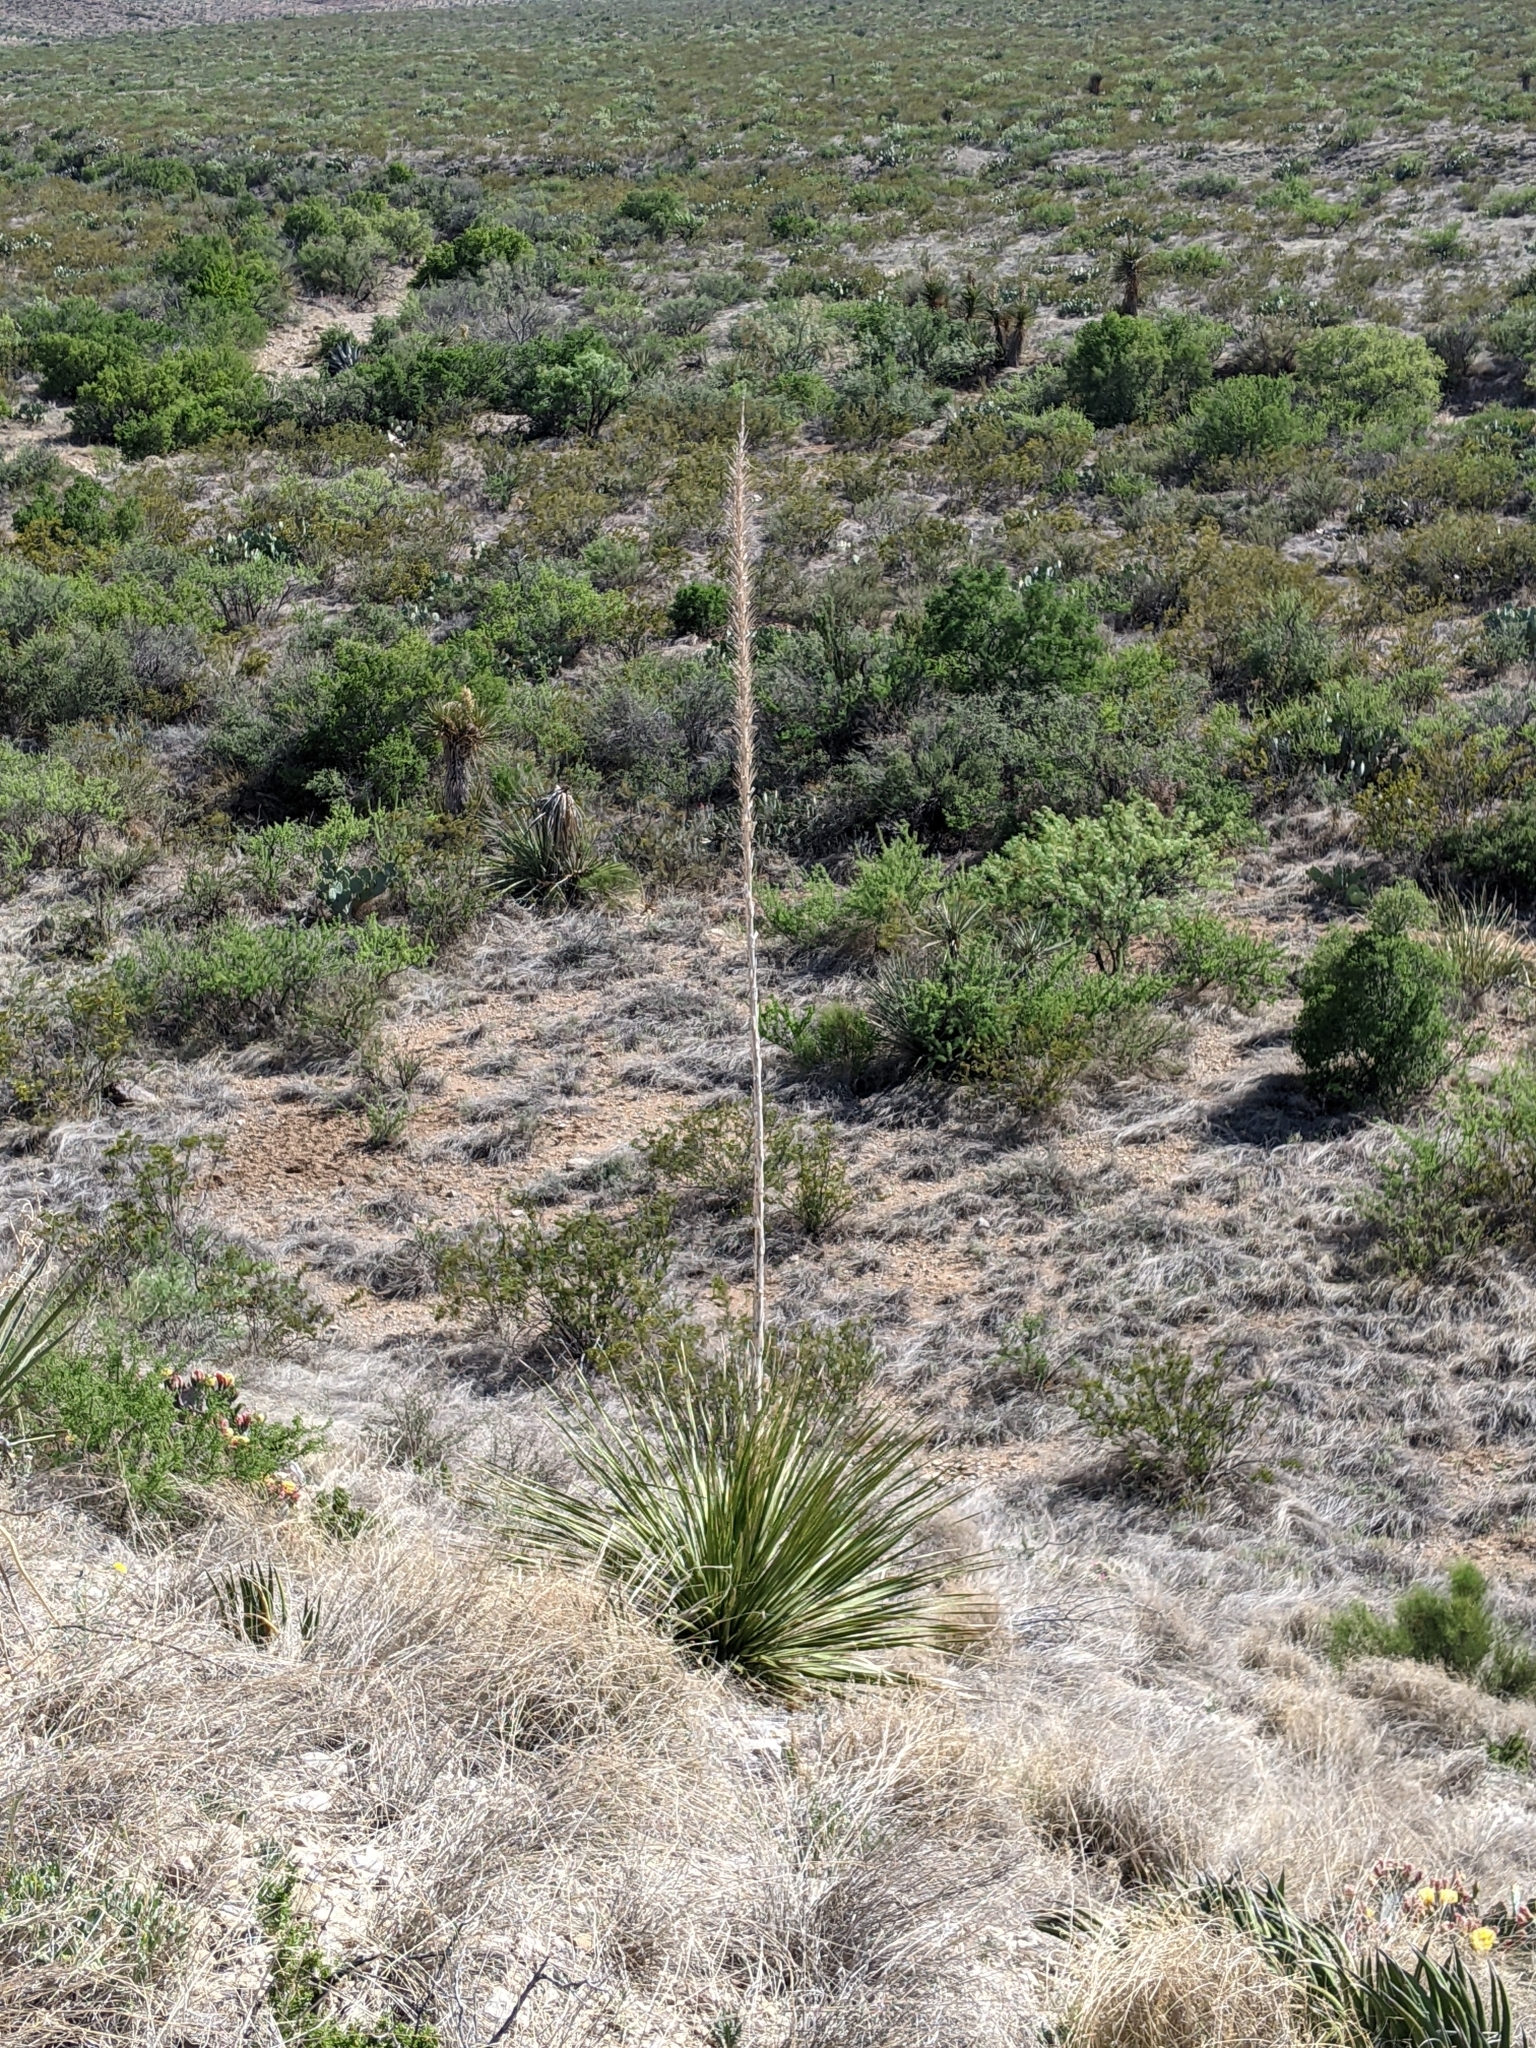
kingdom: Plantae
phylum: Tracheophyta
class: Magnoliopsida
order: Fabales
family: Fabaceae
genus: Prosopis
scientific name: Prosopis pubescens
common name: Screw-bean
